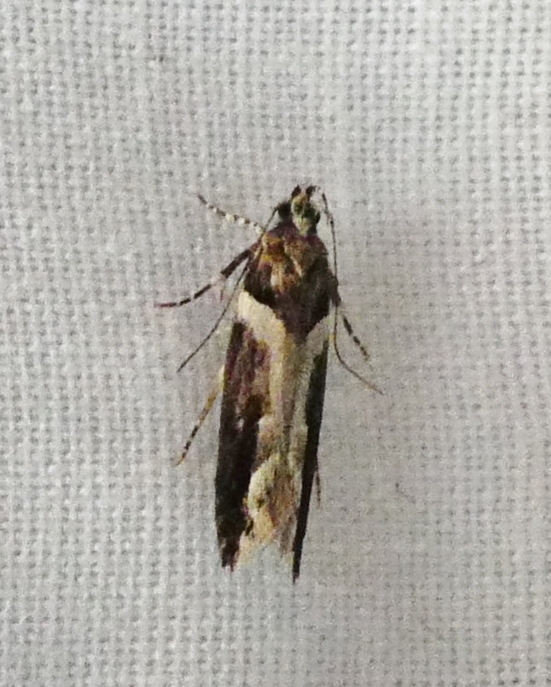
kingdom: Animalia
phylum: Arthropoda
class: Insecta
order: Lepidoptera
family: Gelechiidae
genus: Telphusa
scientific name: Telphusa longifasciella
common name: Y-backed telphusa
